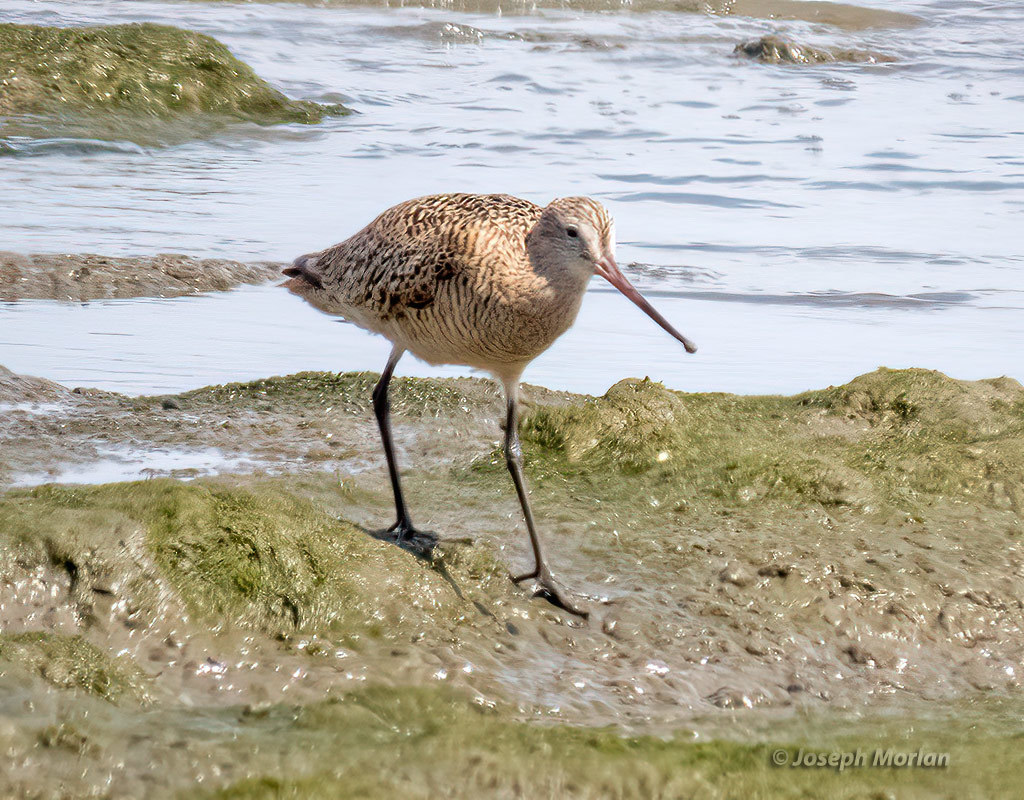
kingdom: Animalia
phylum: Chordata
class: Aves
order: Charadriiformes
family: Scolopacidae
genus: Limosa
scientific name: Limosa fedoa
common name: Marbled godwit
